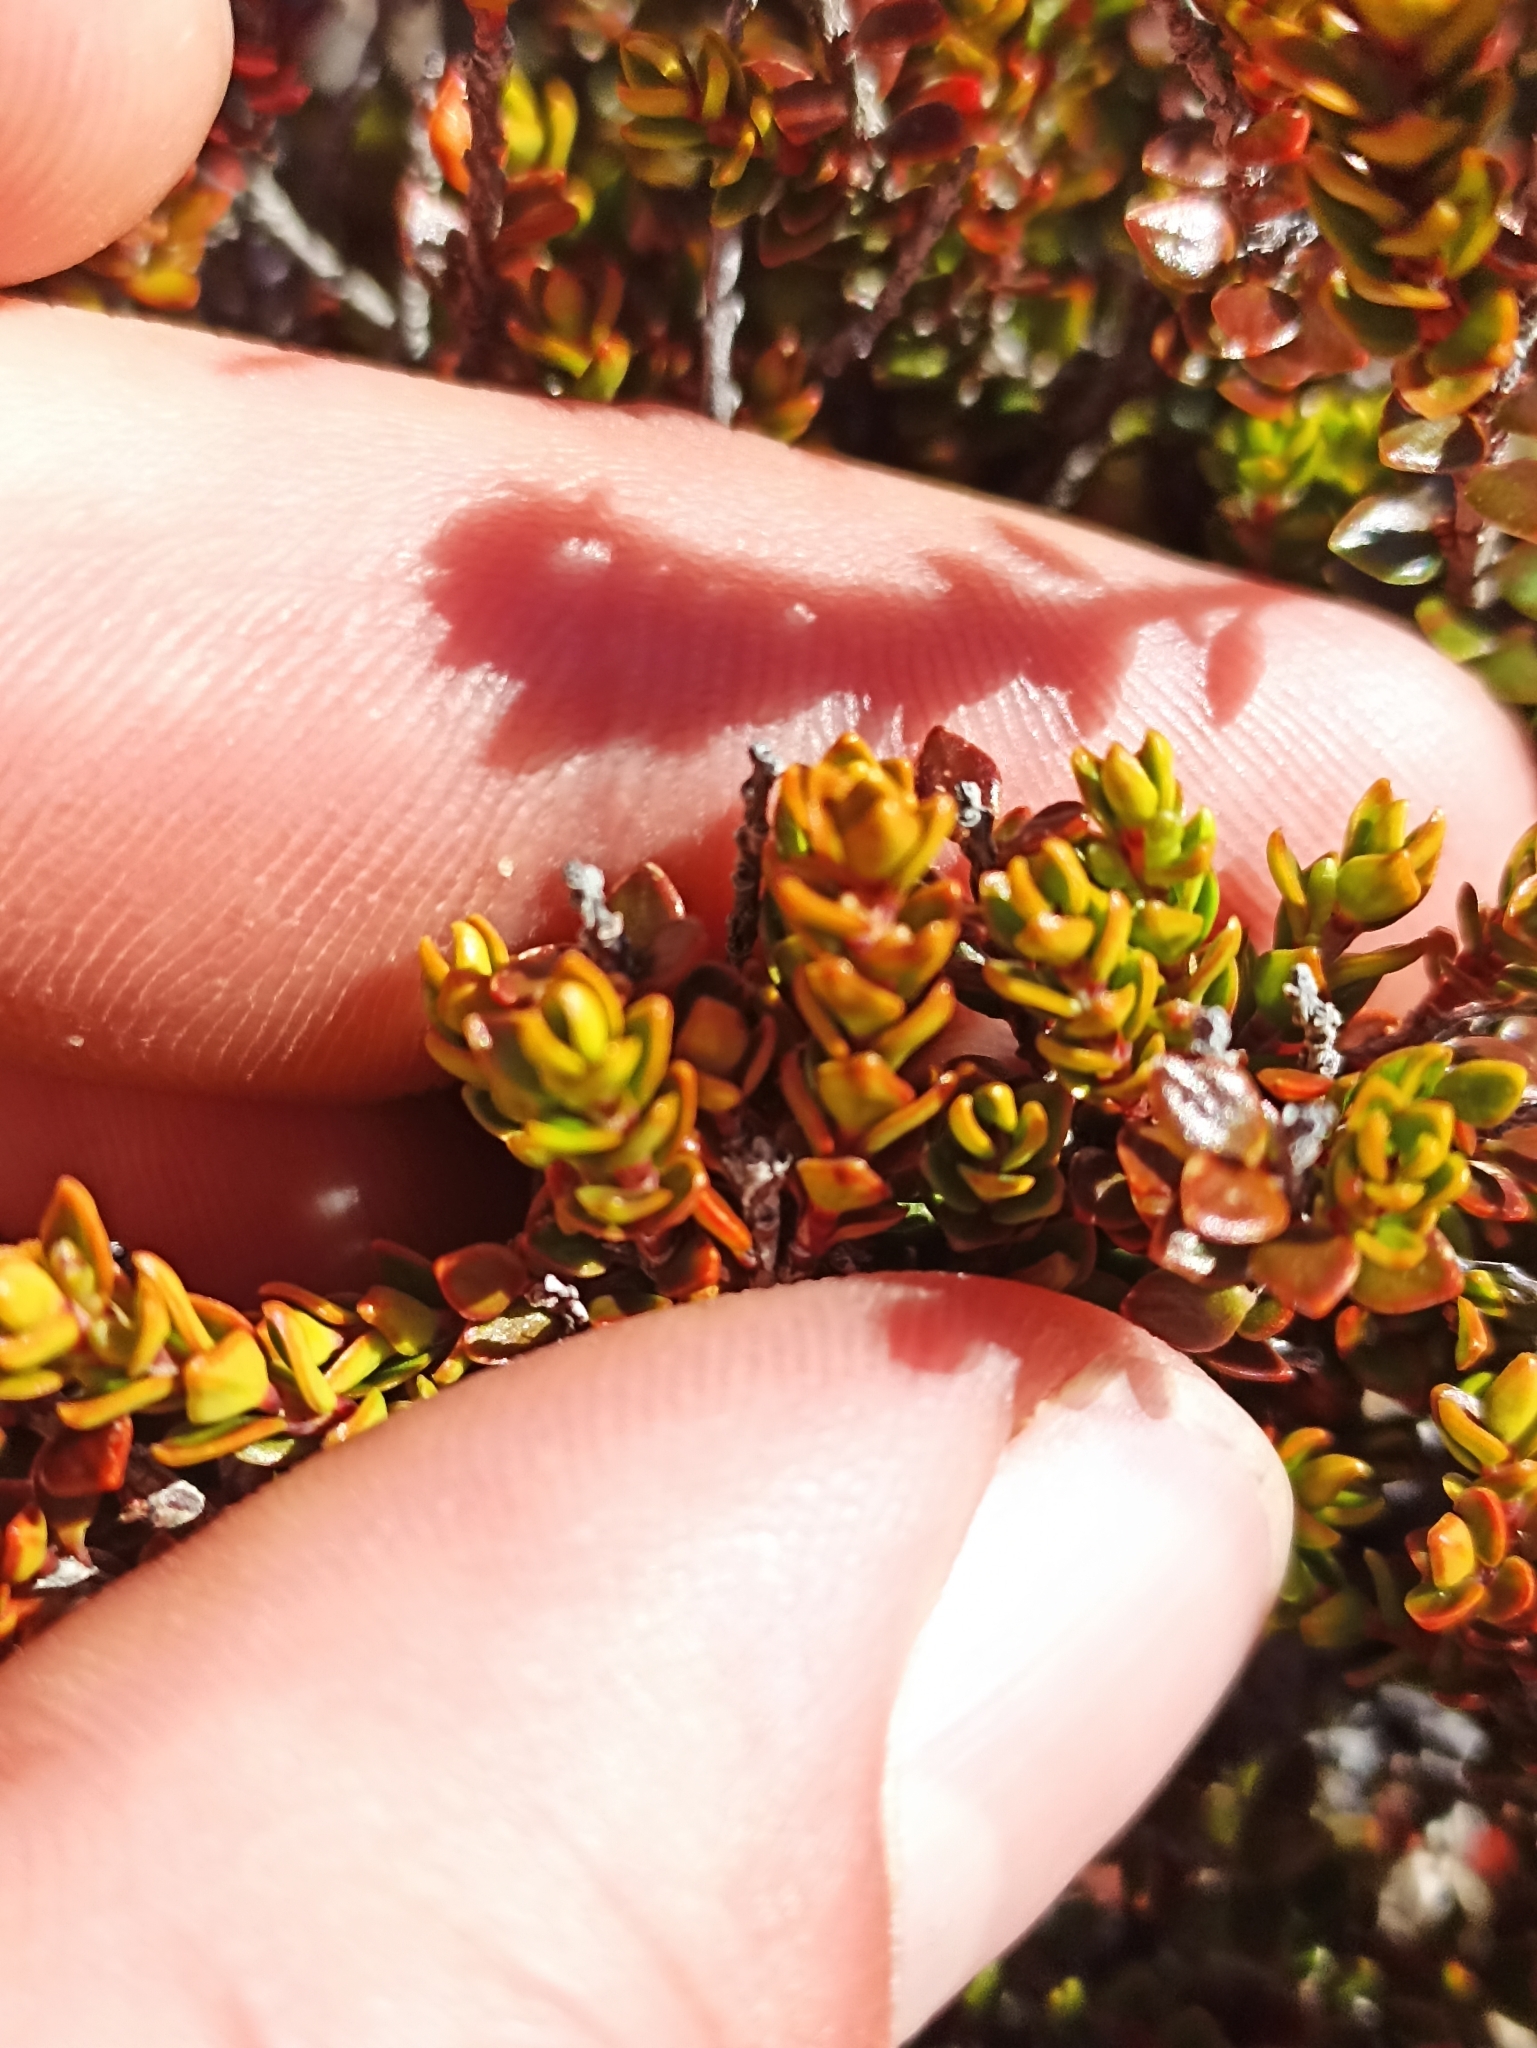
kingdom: Plantae
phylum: Tracheophyta
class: Magnoliopsida
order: Ericales
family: Ericaceae
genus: Epacris
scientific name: Epacris alpina
